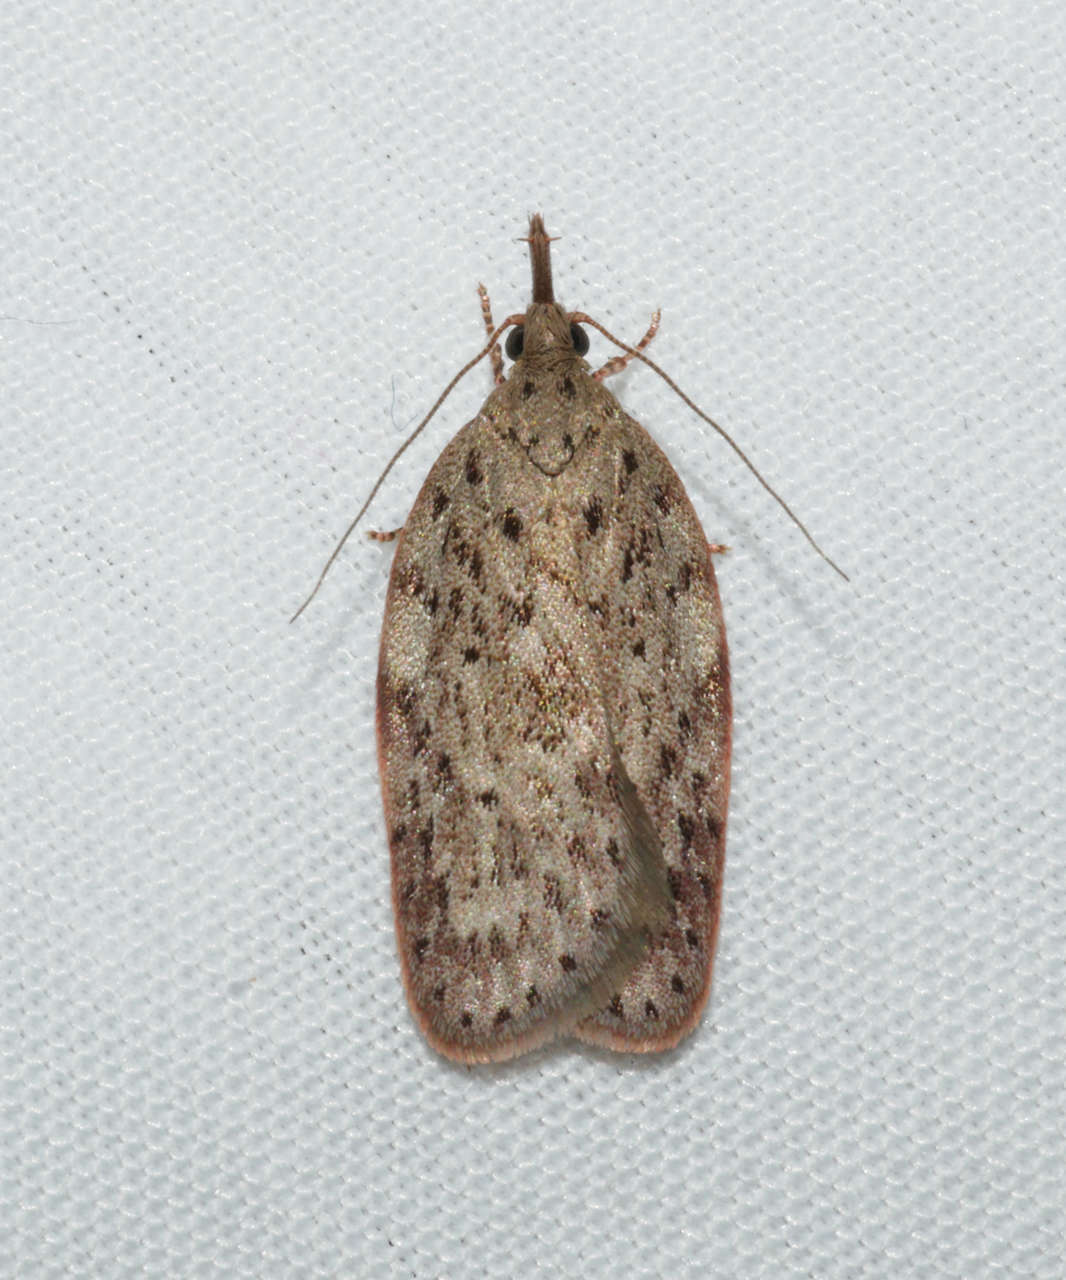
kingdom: Animalia
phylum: Arthropoda
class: Insecta
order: Lepidoptera
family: Depressariidae
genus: Enchocrates
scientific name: Enchocrates picrophylla
